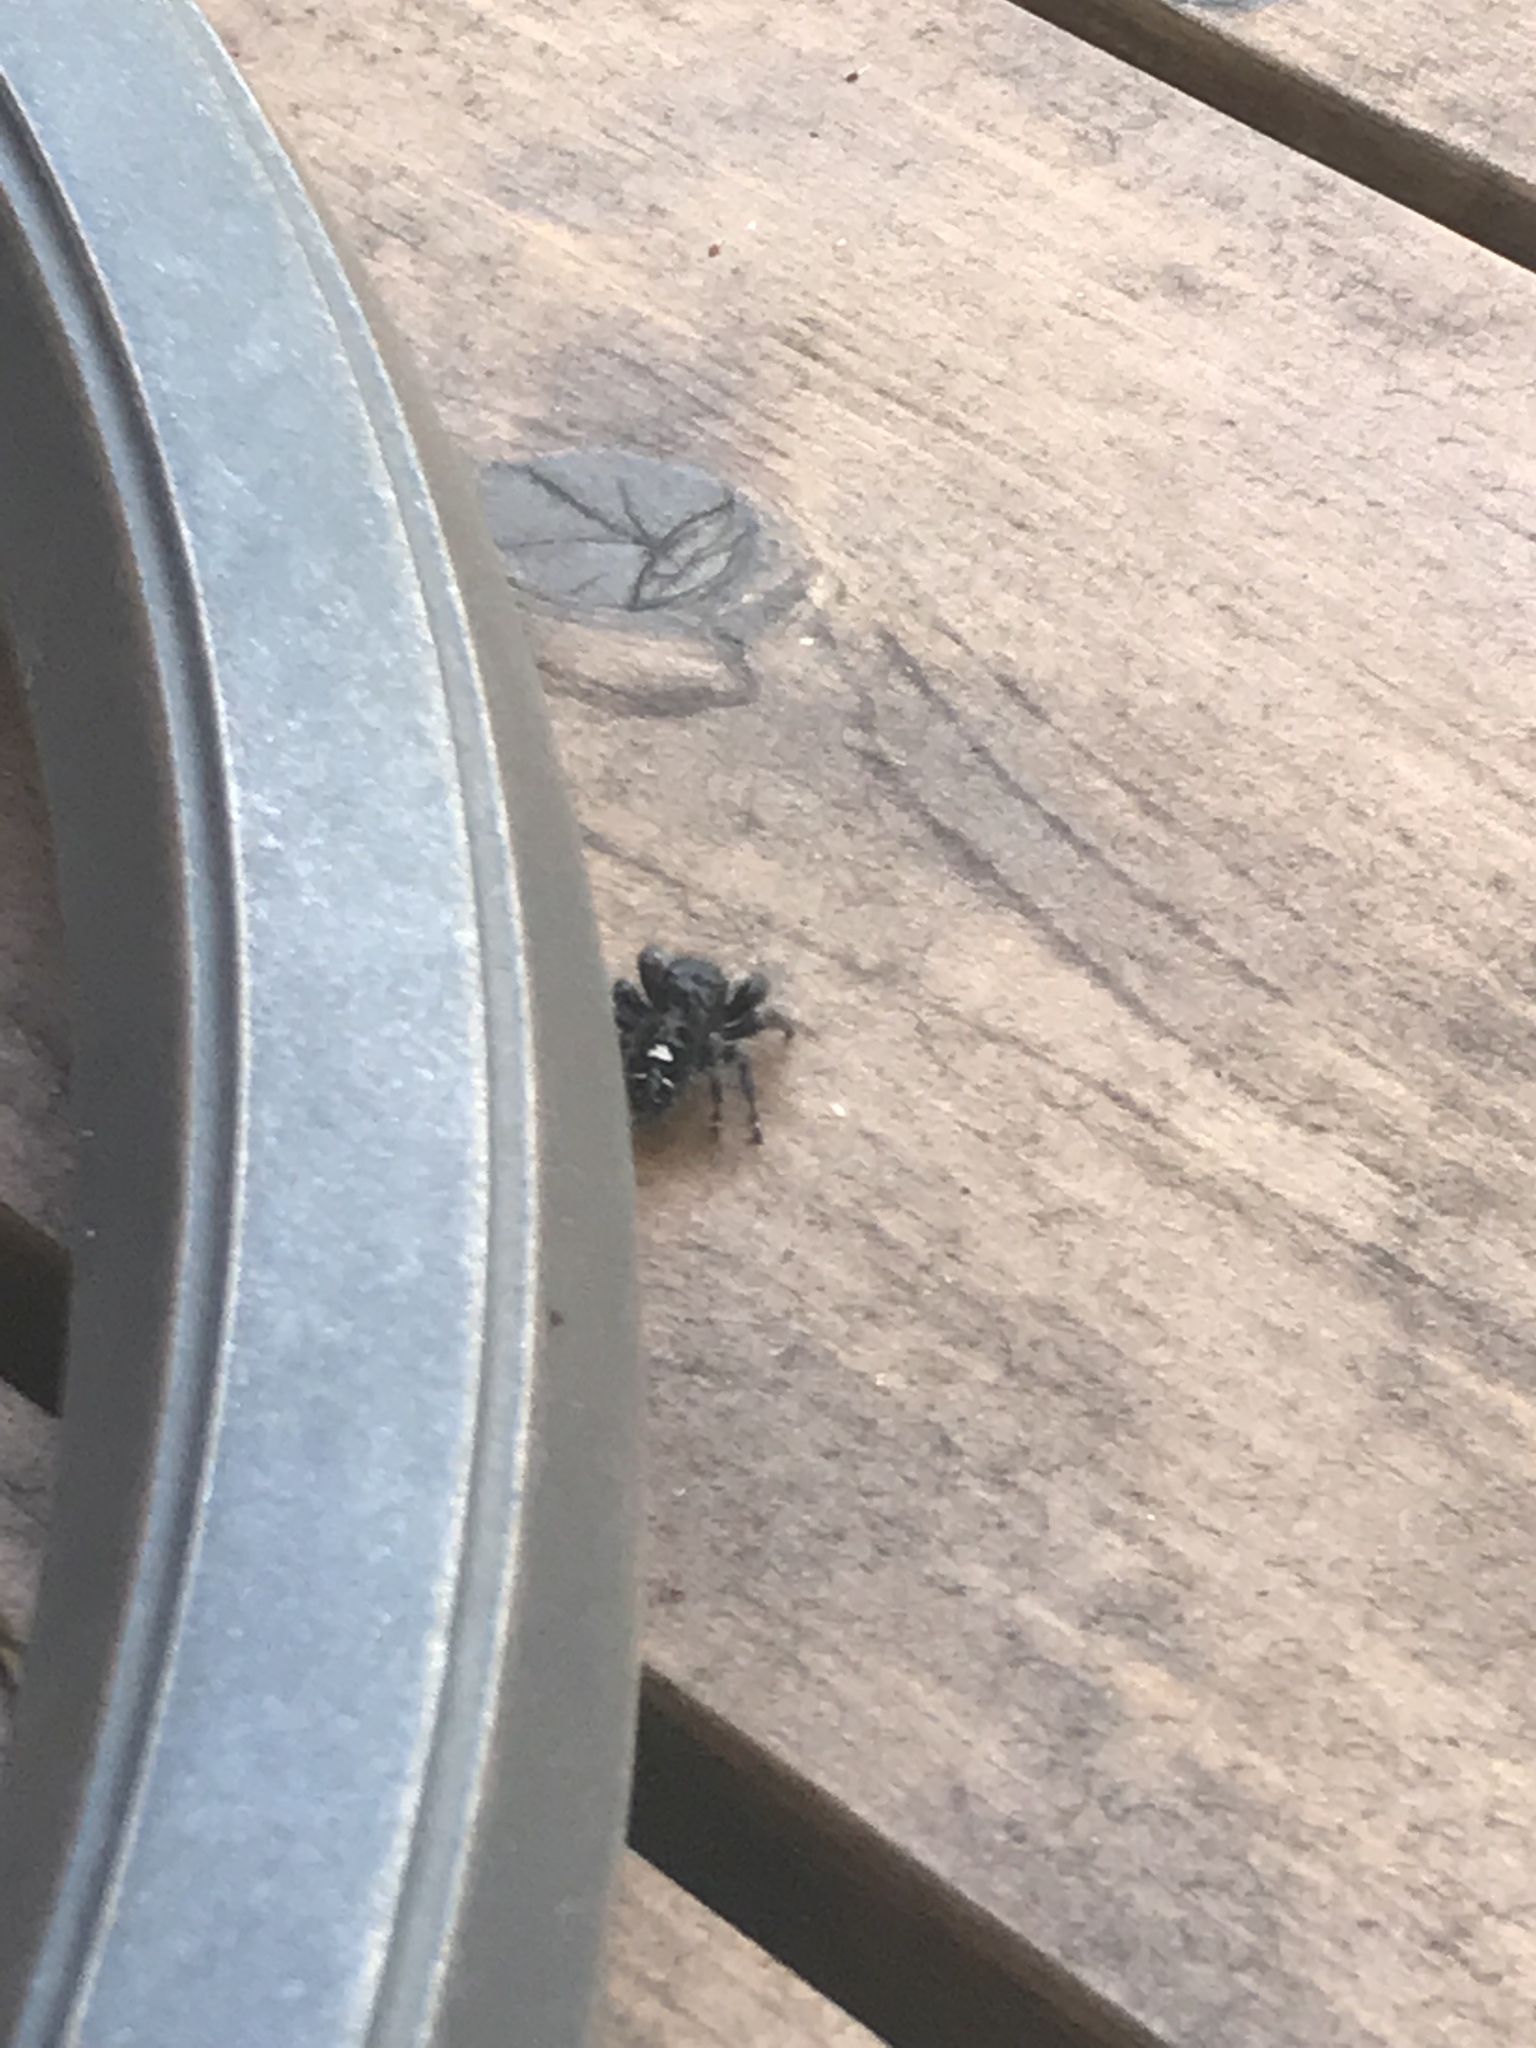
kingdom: Animalia
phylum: Arthropoda
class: Arachnida
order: Araneae
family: Salticidae
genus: Phidippus
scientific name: Phidippus audax
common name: Bold jumper
